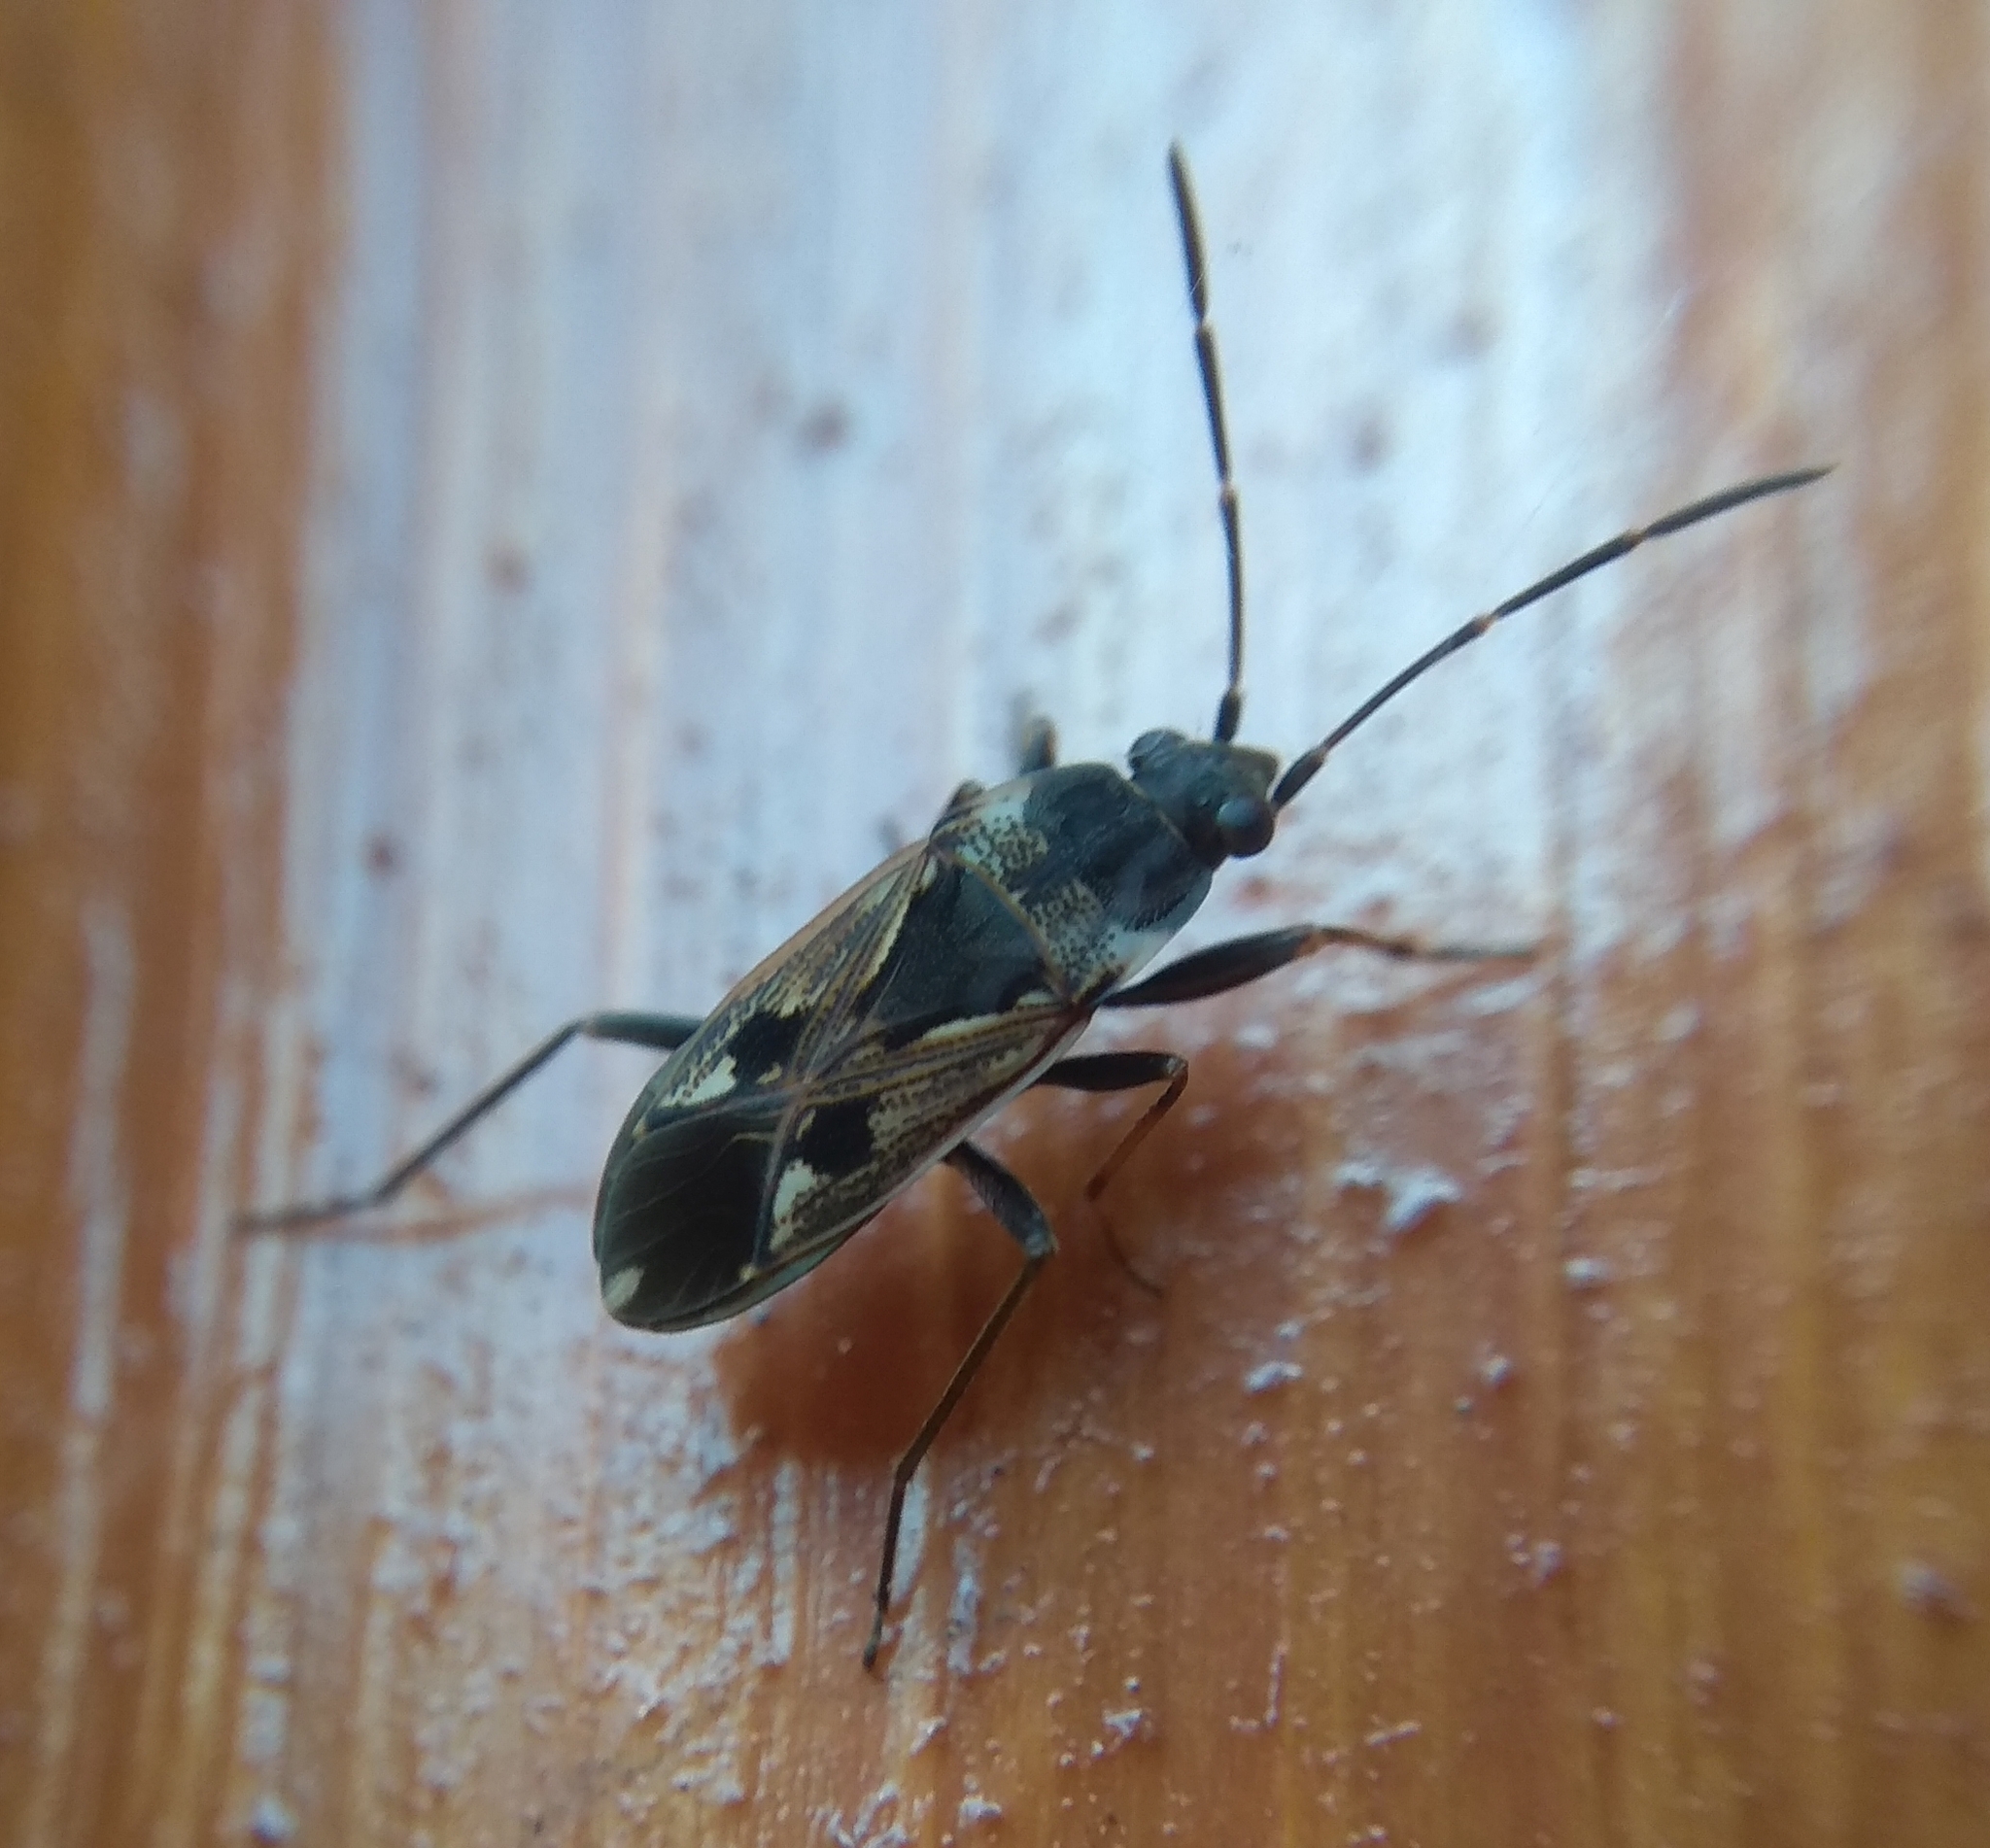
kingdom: Animalia
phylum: Arthropoda
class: Insecta
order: Hemiptera
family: Rhyparochromidae
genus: Rhyparochromus
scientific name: Rhyparochromus vulgaris
